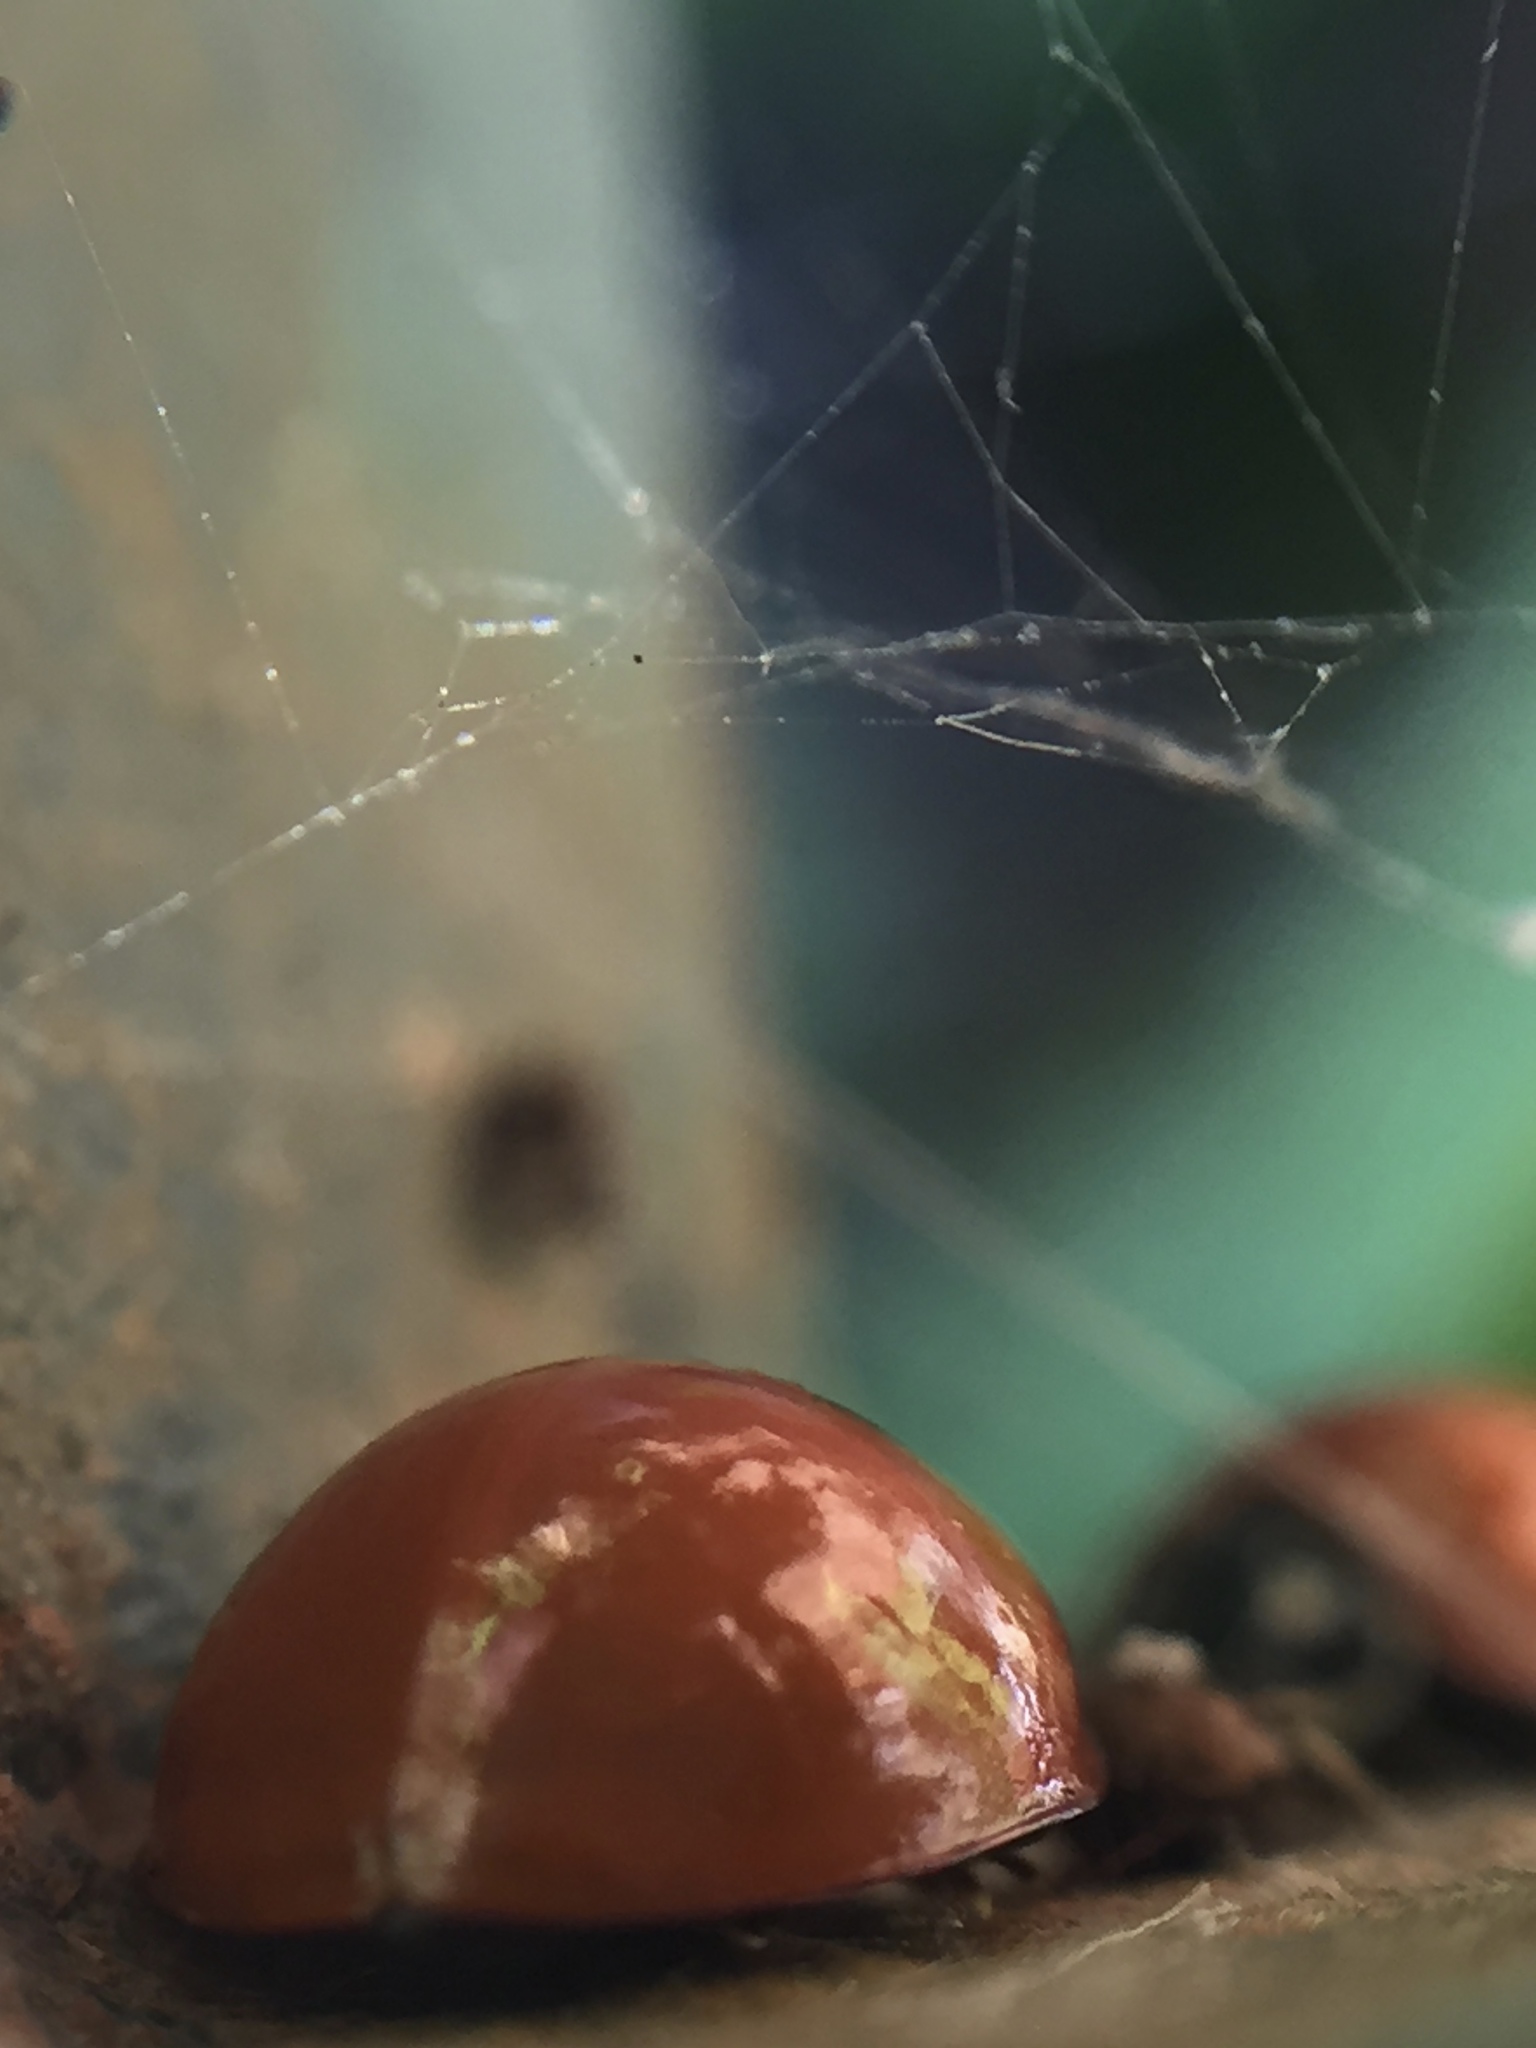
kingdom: Animalia
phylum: Arthropoda
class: Insecta
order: Coleoptera
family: Coccinellidae
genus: Cycloneda
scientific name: Cycloneda sanguinea
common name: Ladybird beetle
